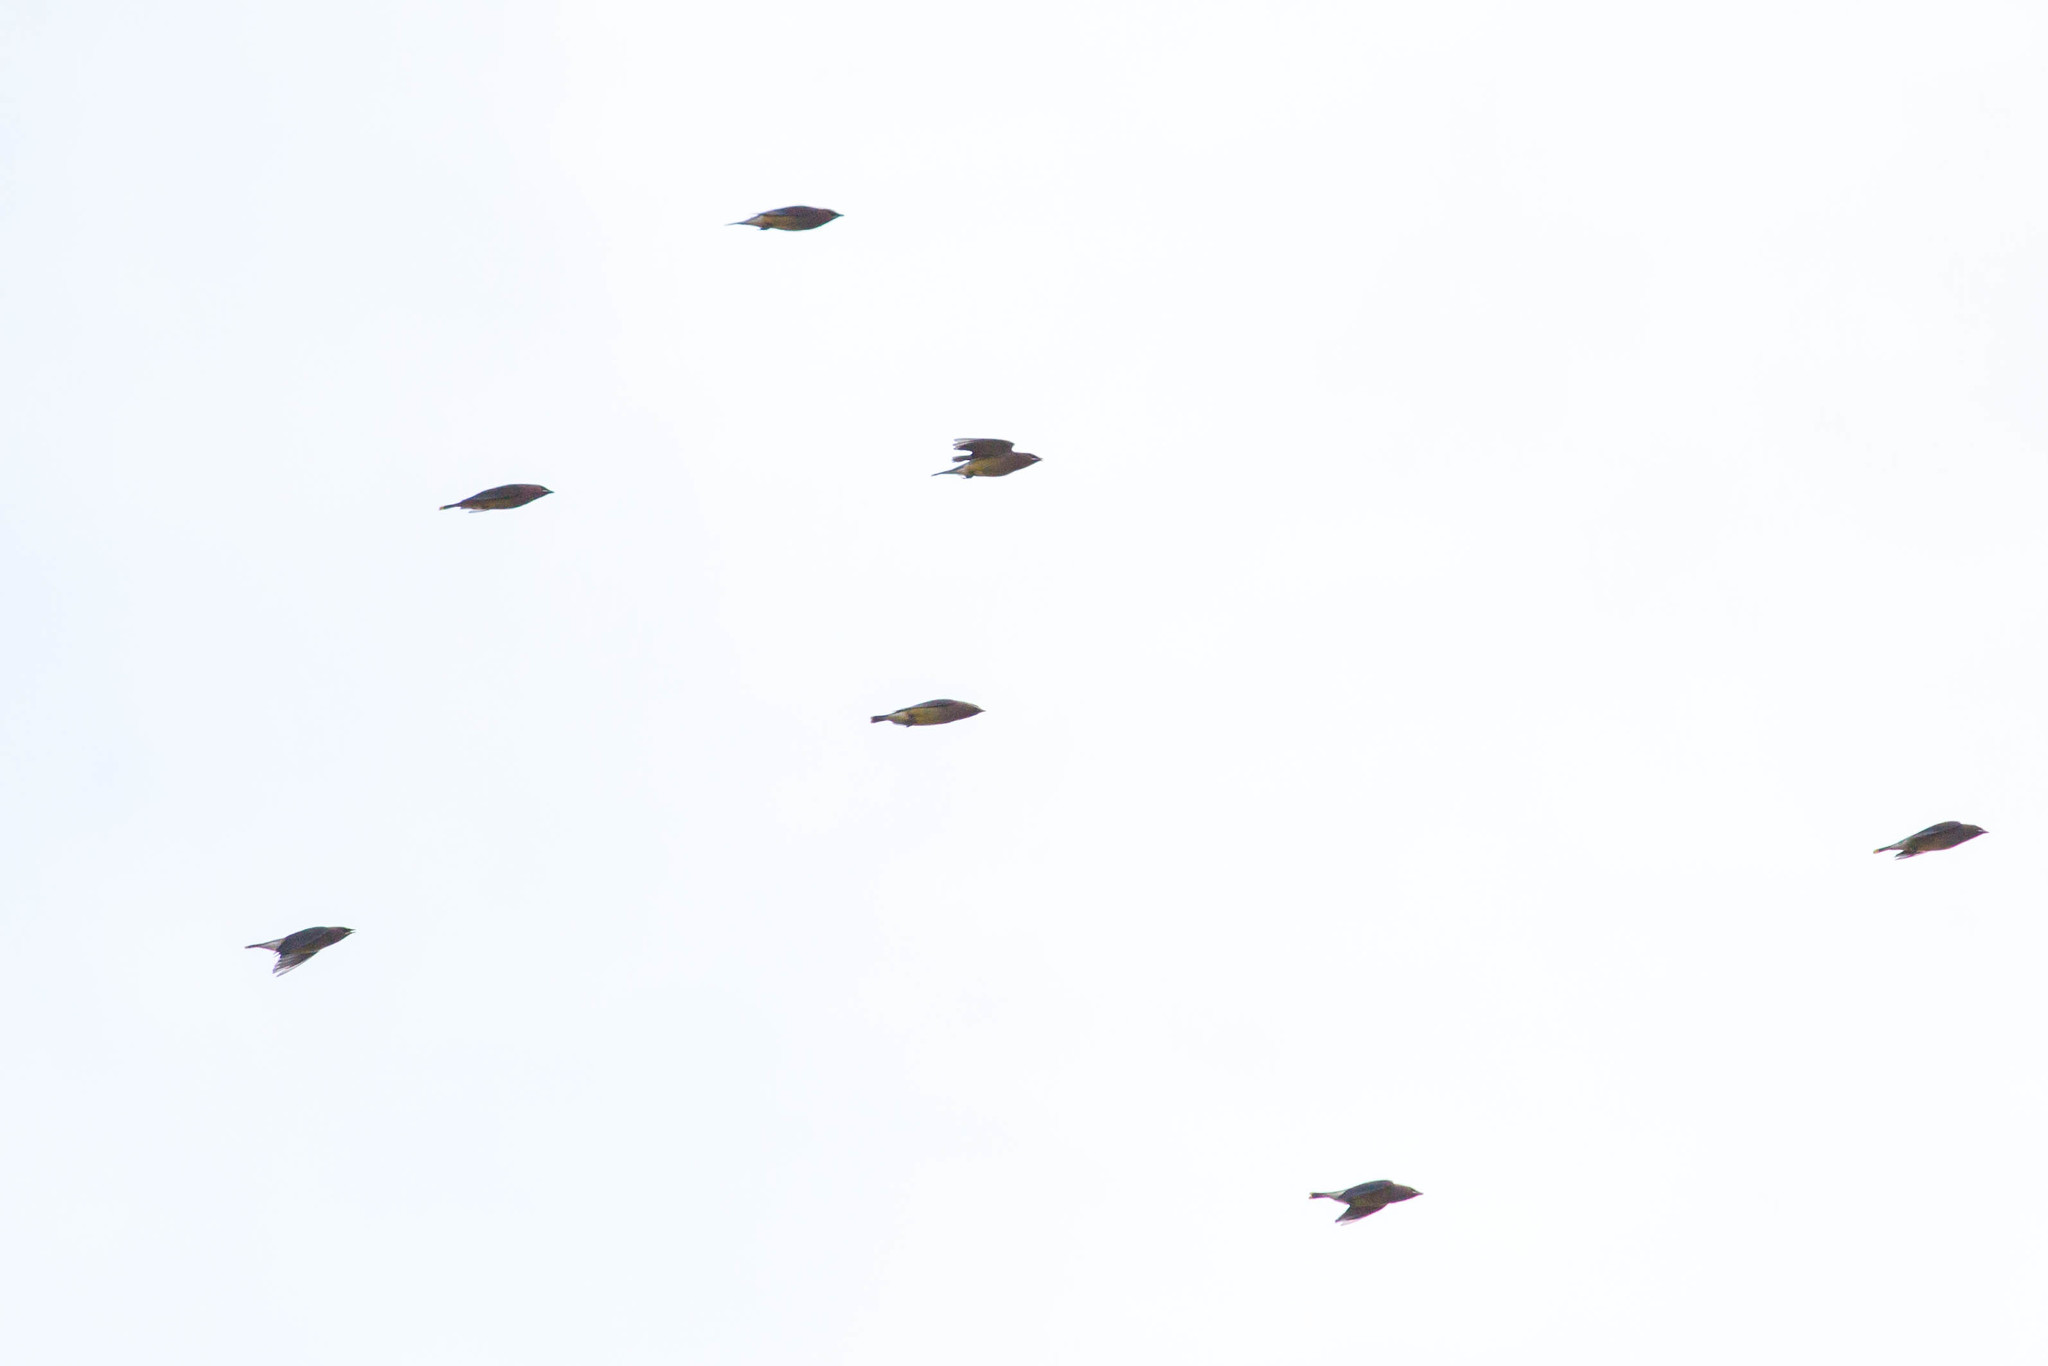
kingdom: Animalia
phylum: Chordata
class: Aves
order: Passeriformes
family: Bombycillidae
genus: Bombycilla
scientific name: Bombycilla cedrorum
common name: Cedar waxwing
